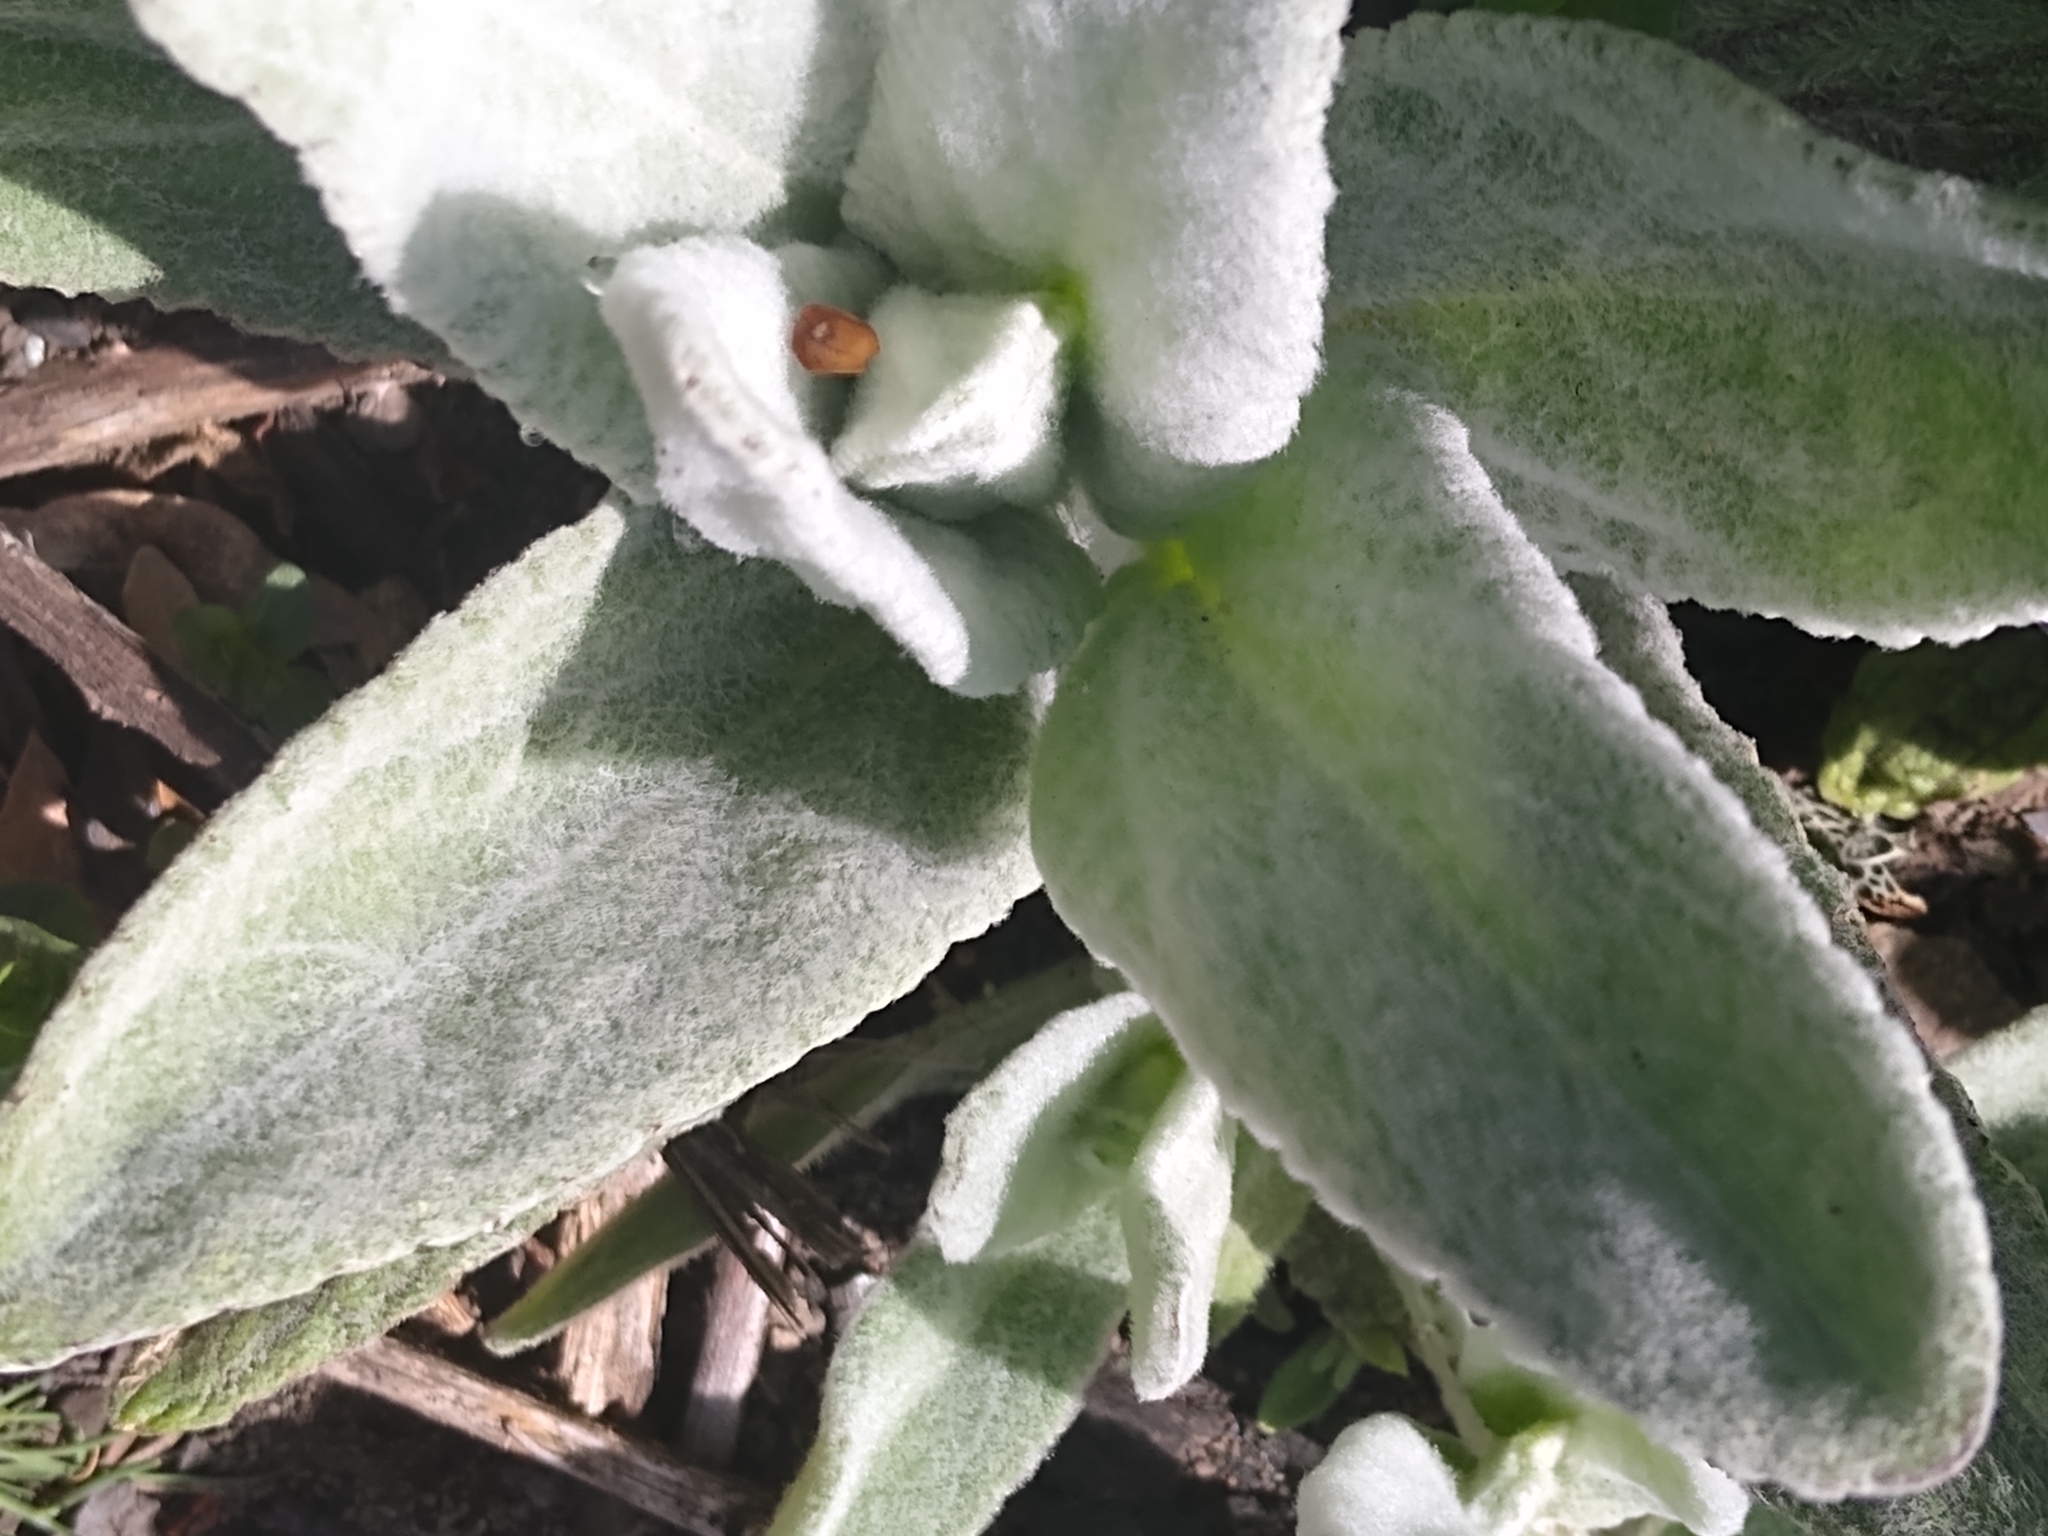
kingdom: Plantae
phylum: Tracheophyta
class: Magnoliopsida
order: Lamiales
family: Lamiaceae
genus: Stachys
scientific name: Stachys albens
